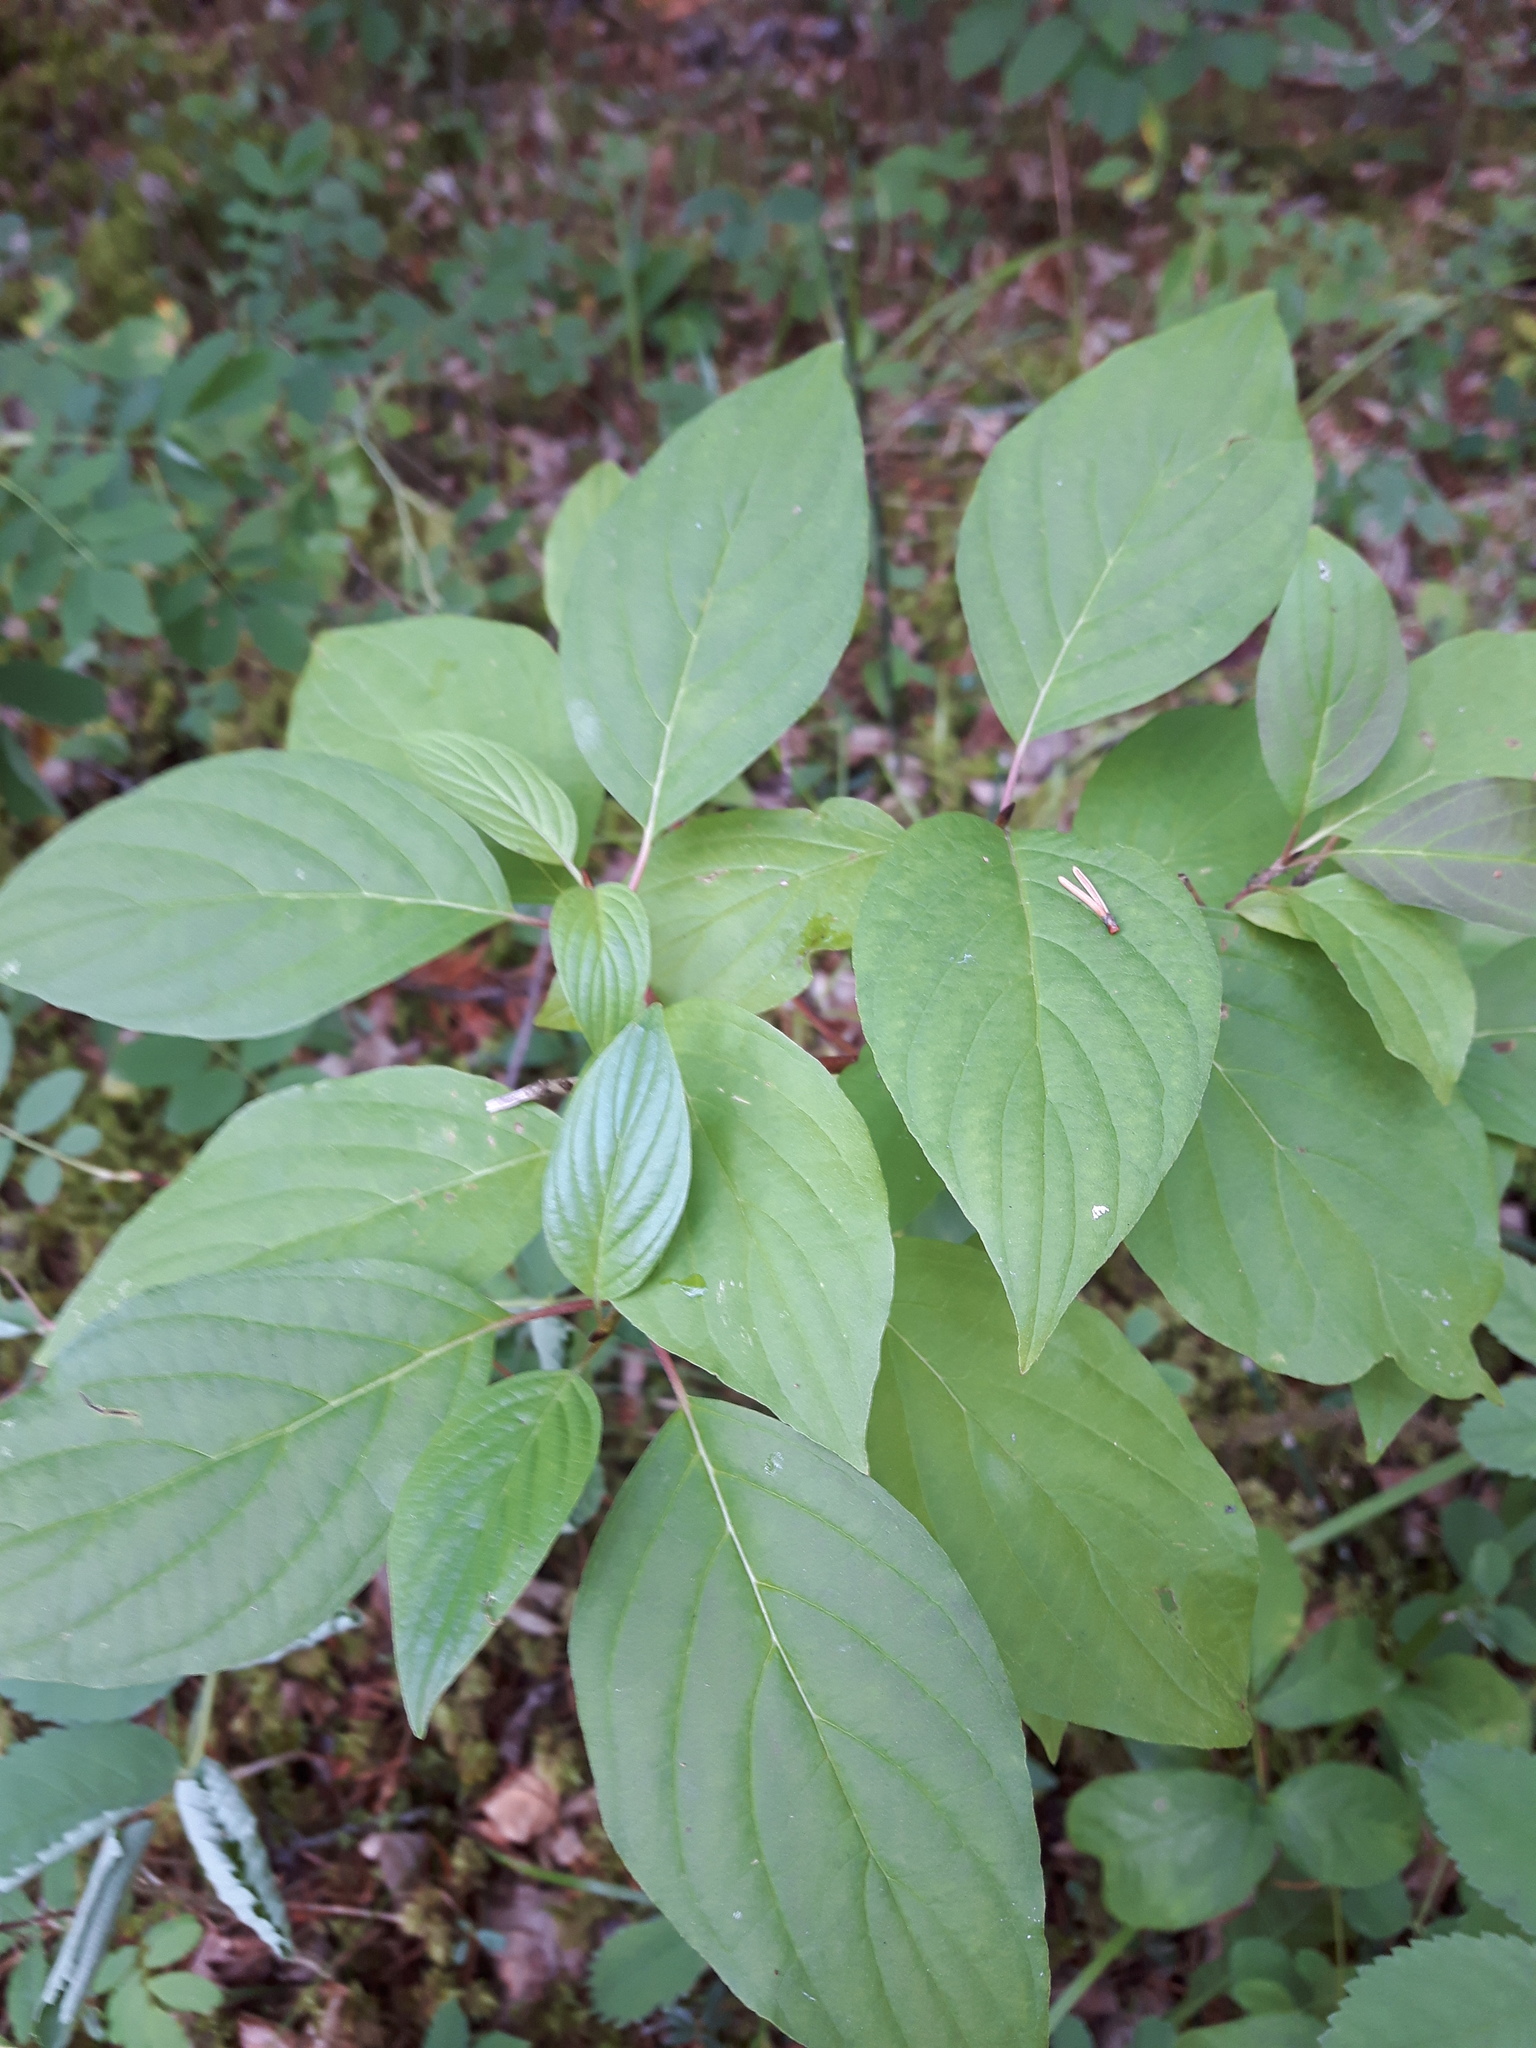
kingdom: Plantae
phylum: Tracheophyta
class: Magnoliopsida
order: Cornales
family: Cornaceae
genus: Cornus
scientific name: Cornus sericea
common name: Red-osier dogwood
